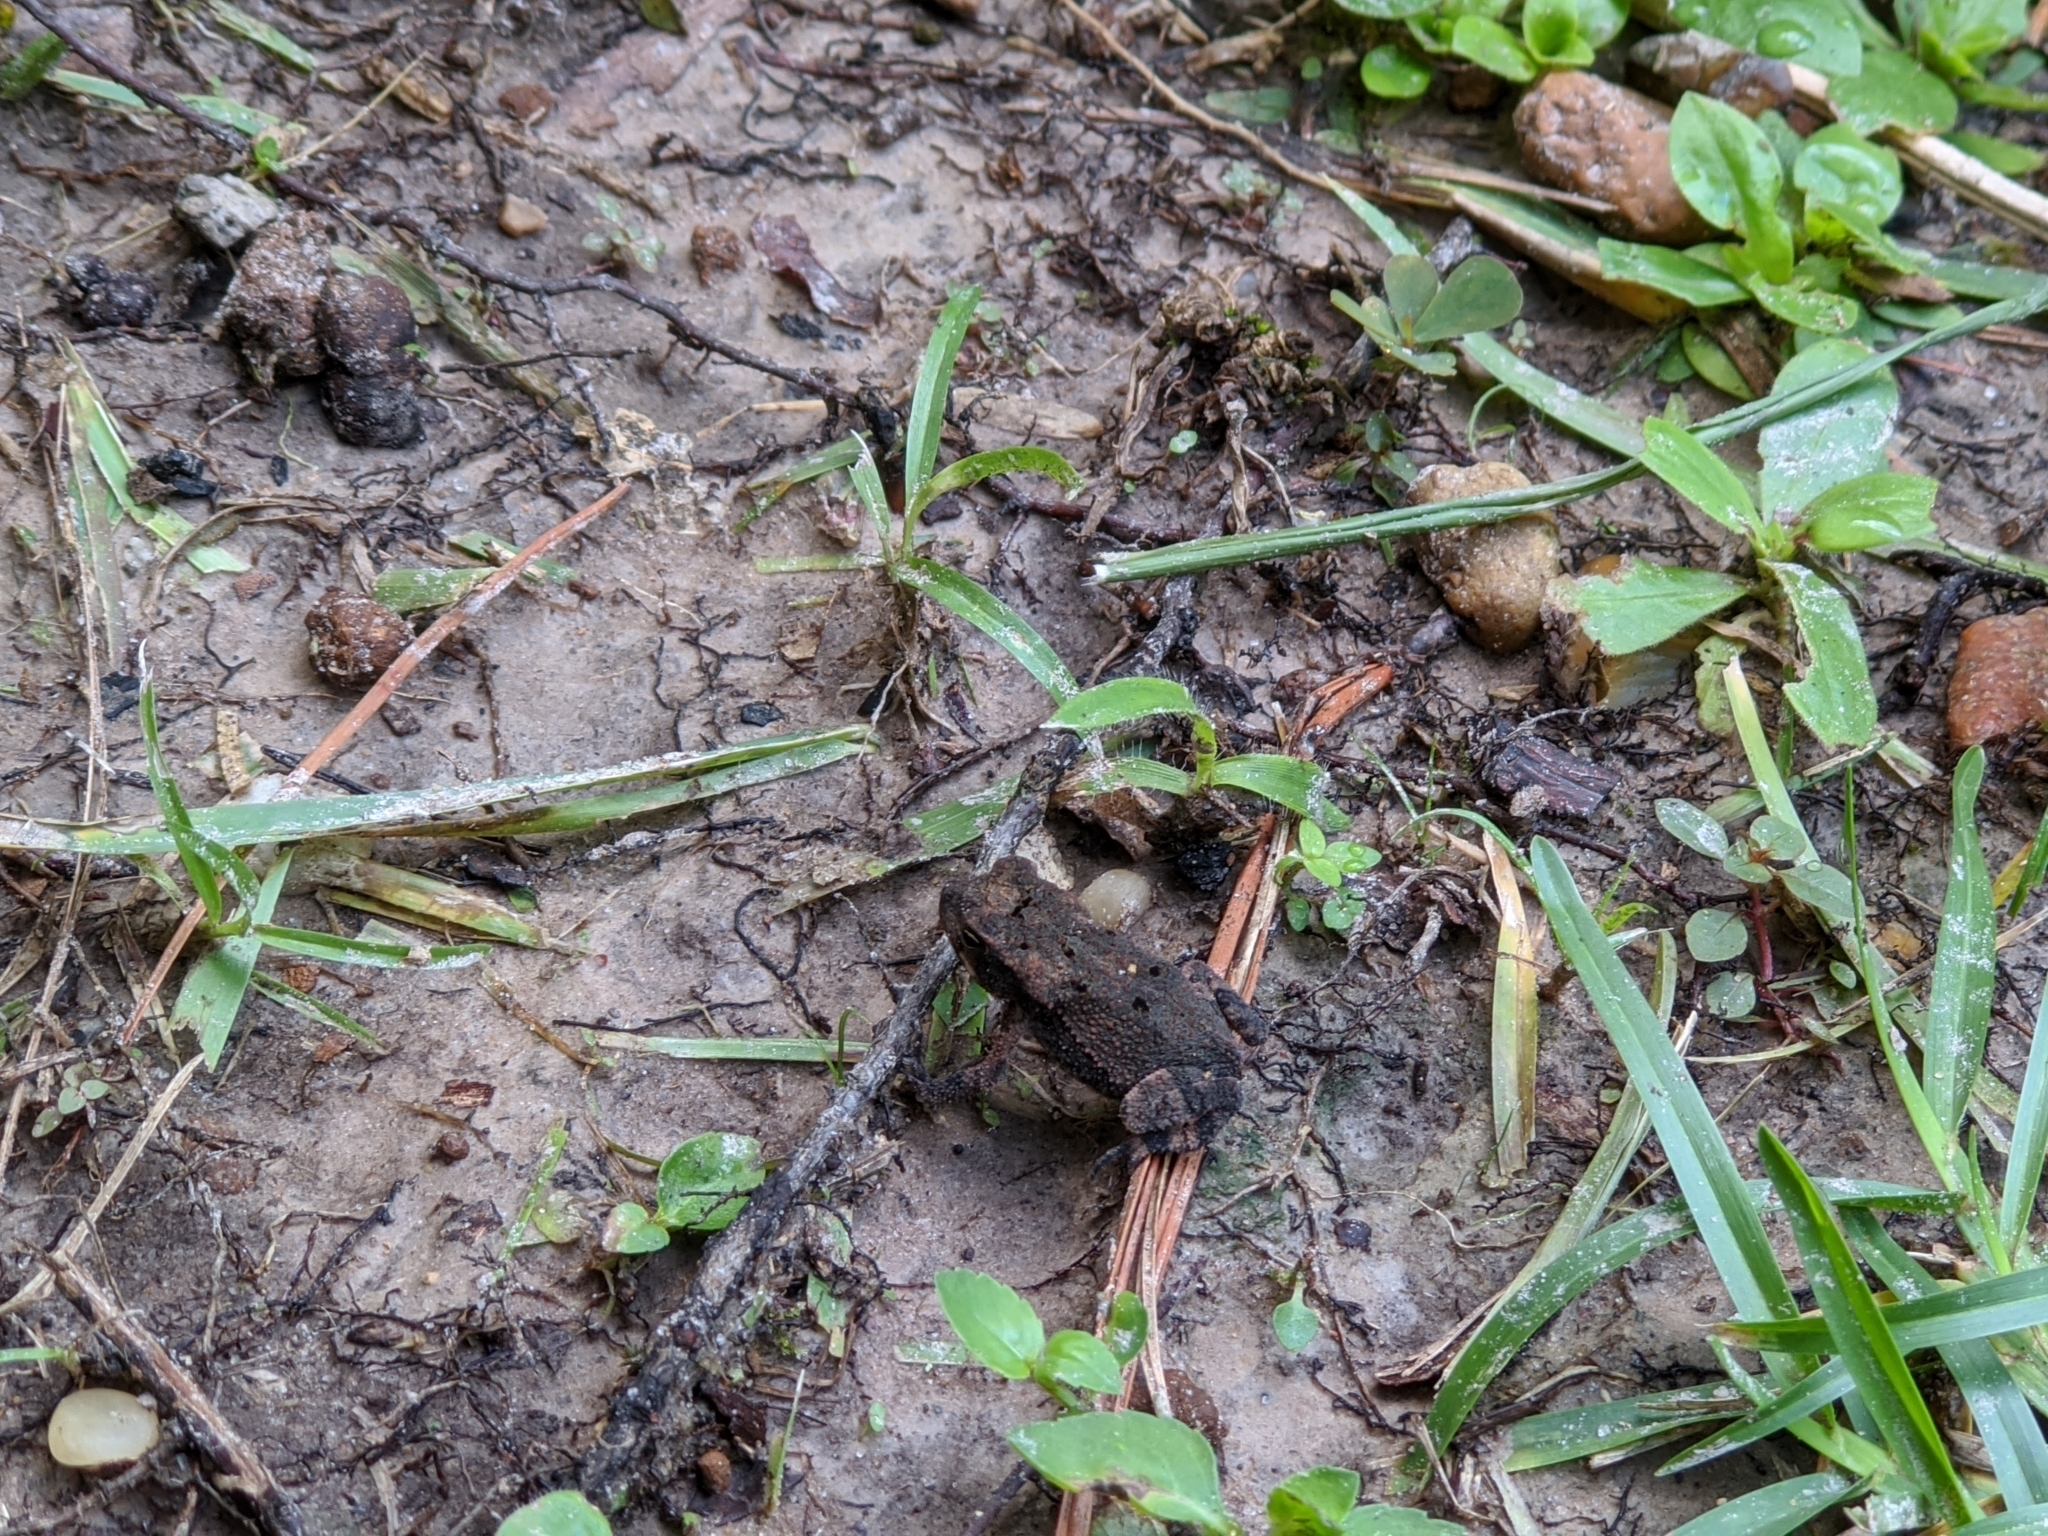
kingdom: Animalia
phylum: Chordata
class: Amphibia
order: Anura
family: Bufonidae
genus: Incilius
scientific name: Incilius nebulifer
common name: Gulf coast toad
